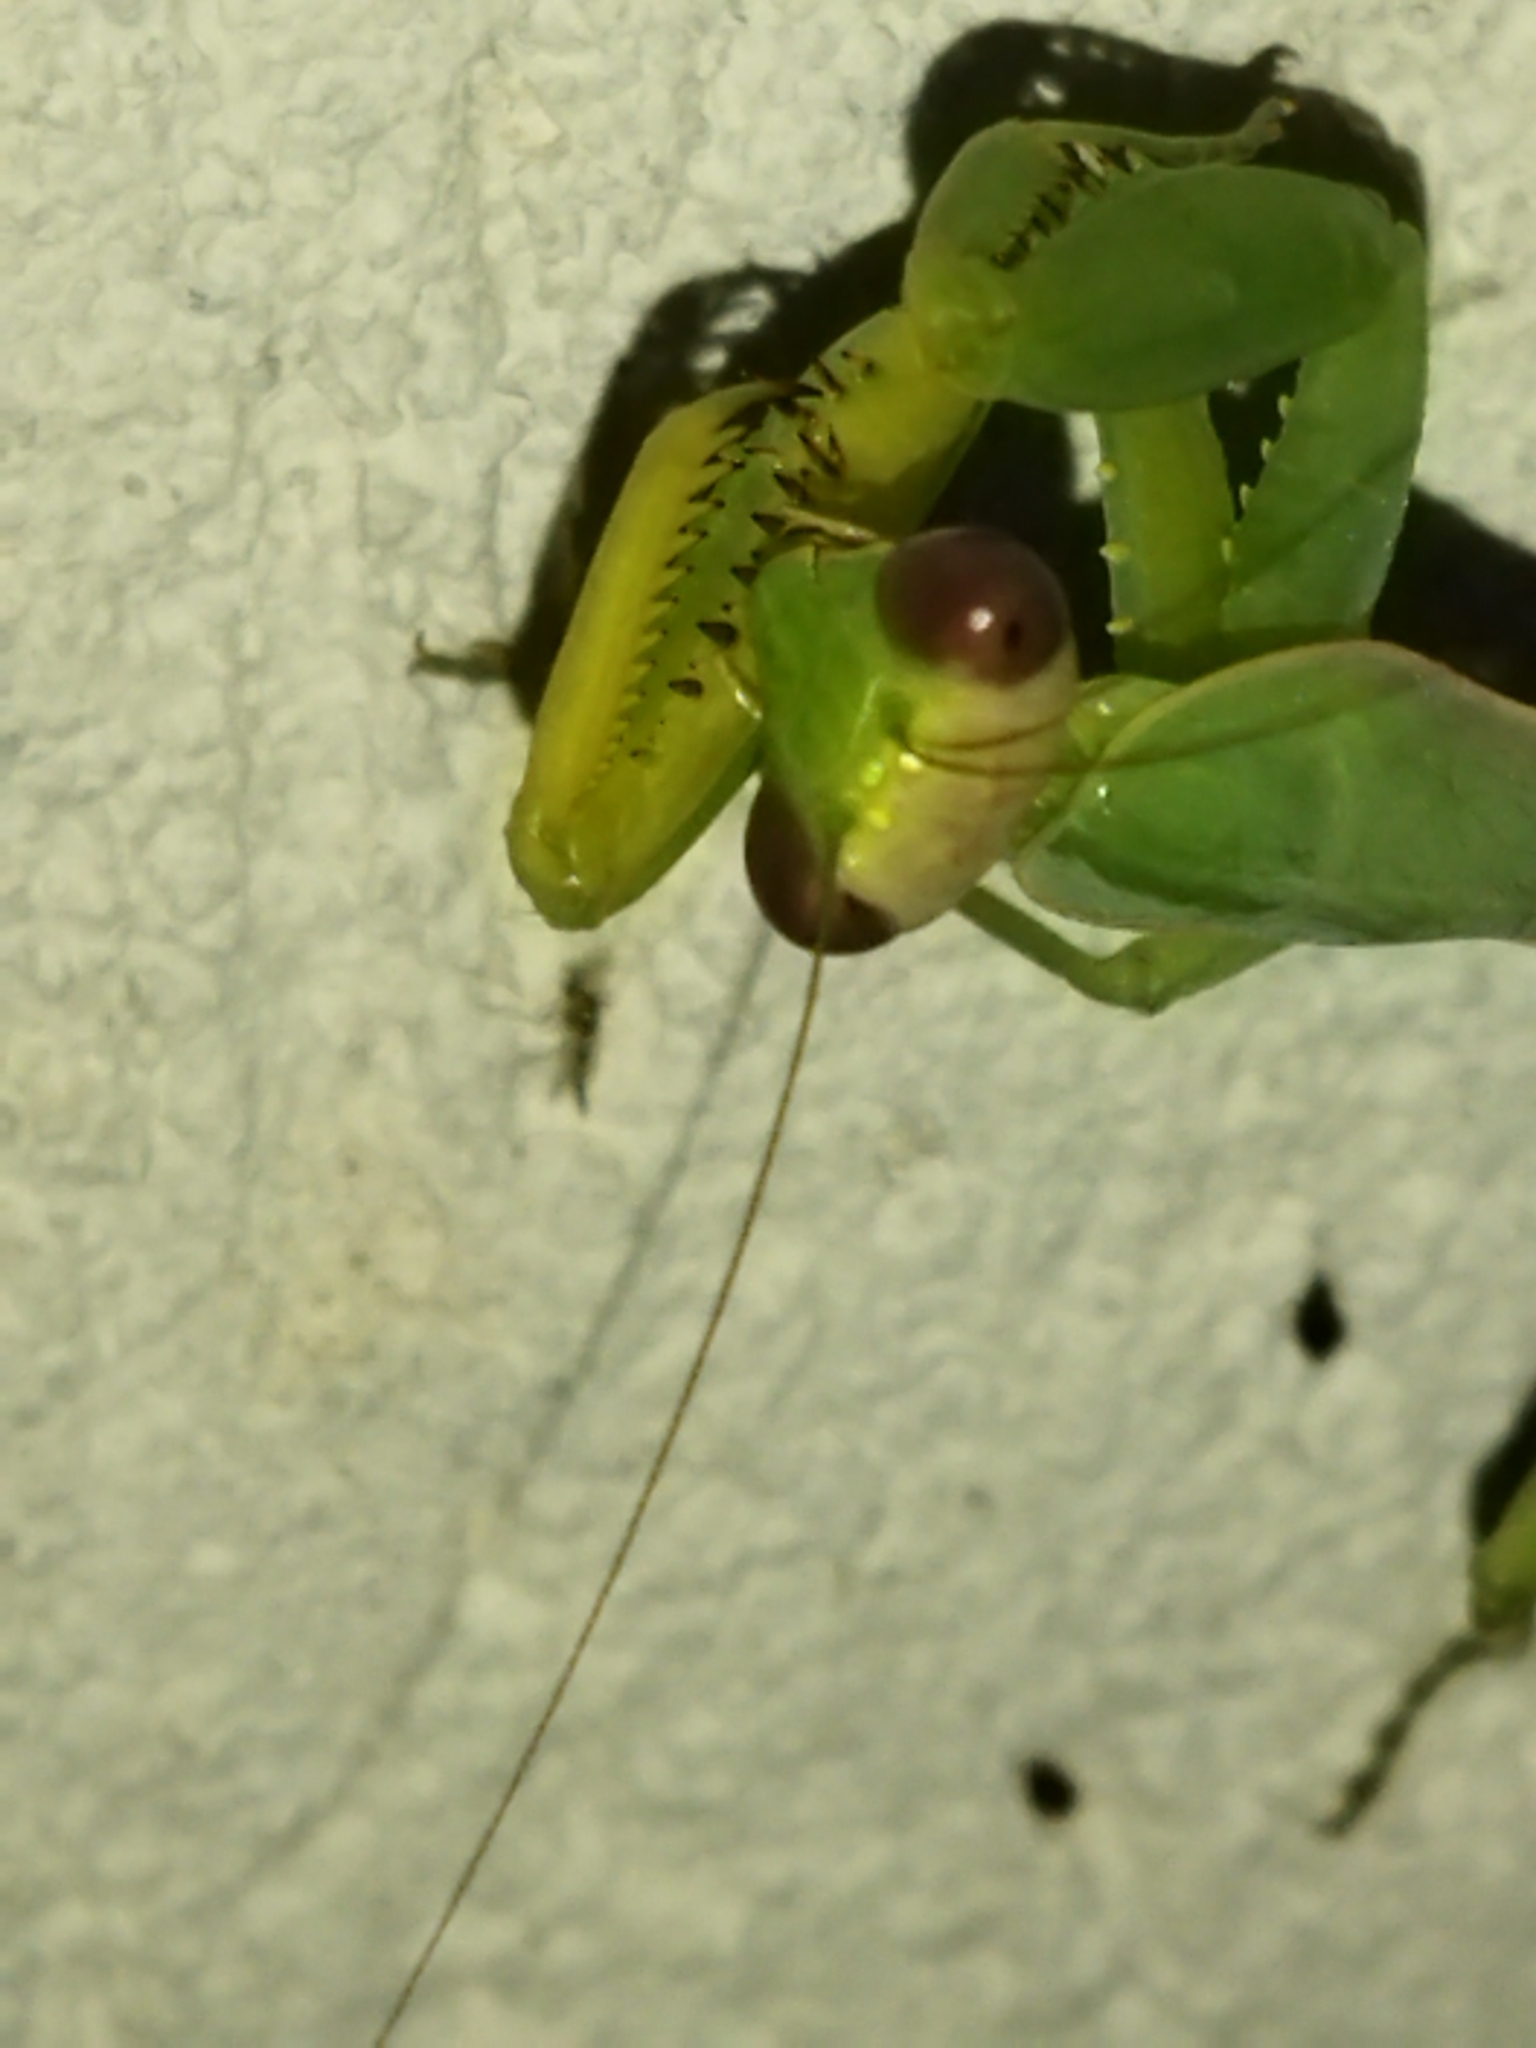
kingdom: Animalia
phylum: Arthropoda
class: Insecta
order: Mantodea
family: Mantidae
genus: Hierodula
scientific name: Hierodula transcaucasica
